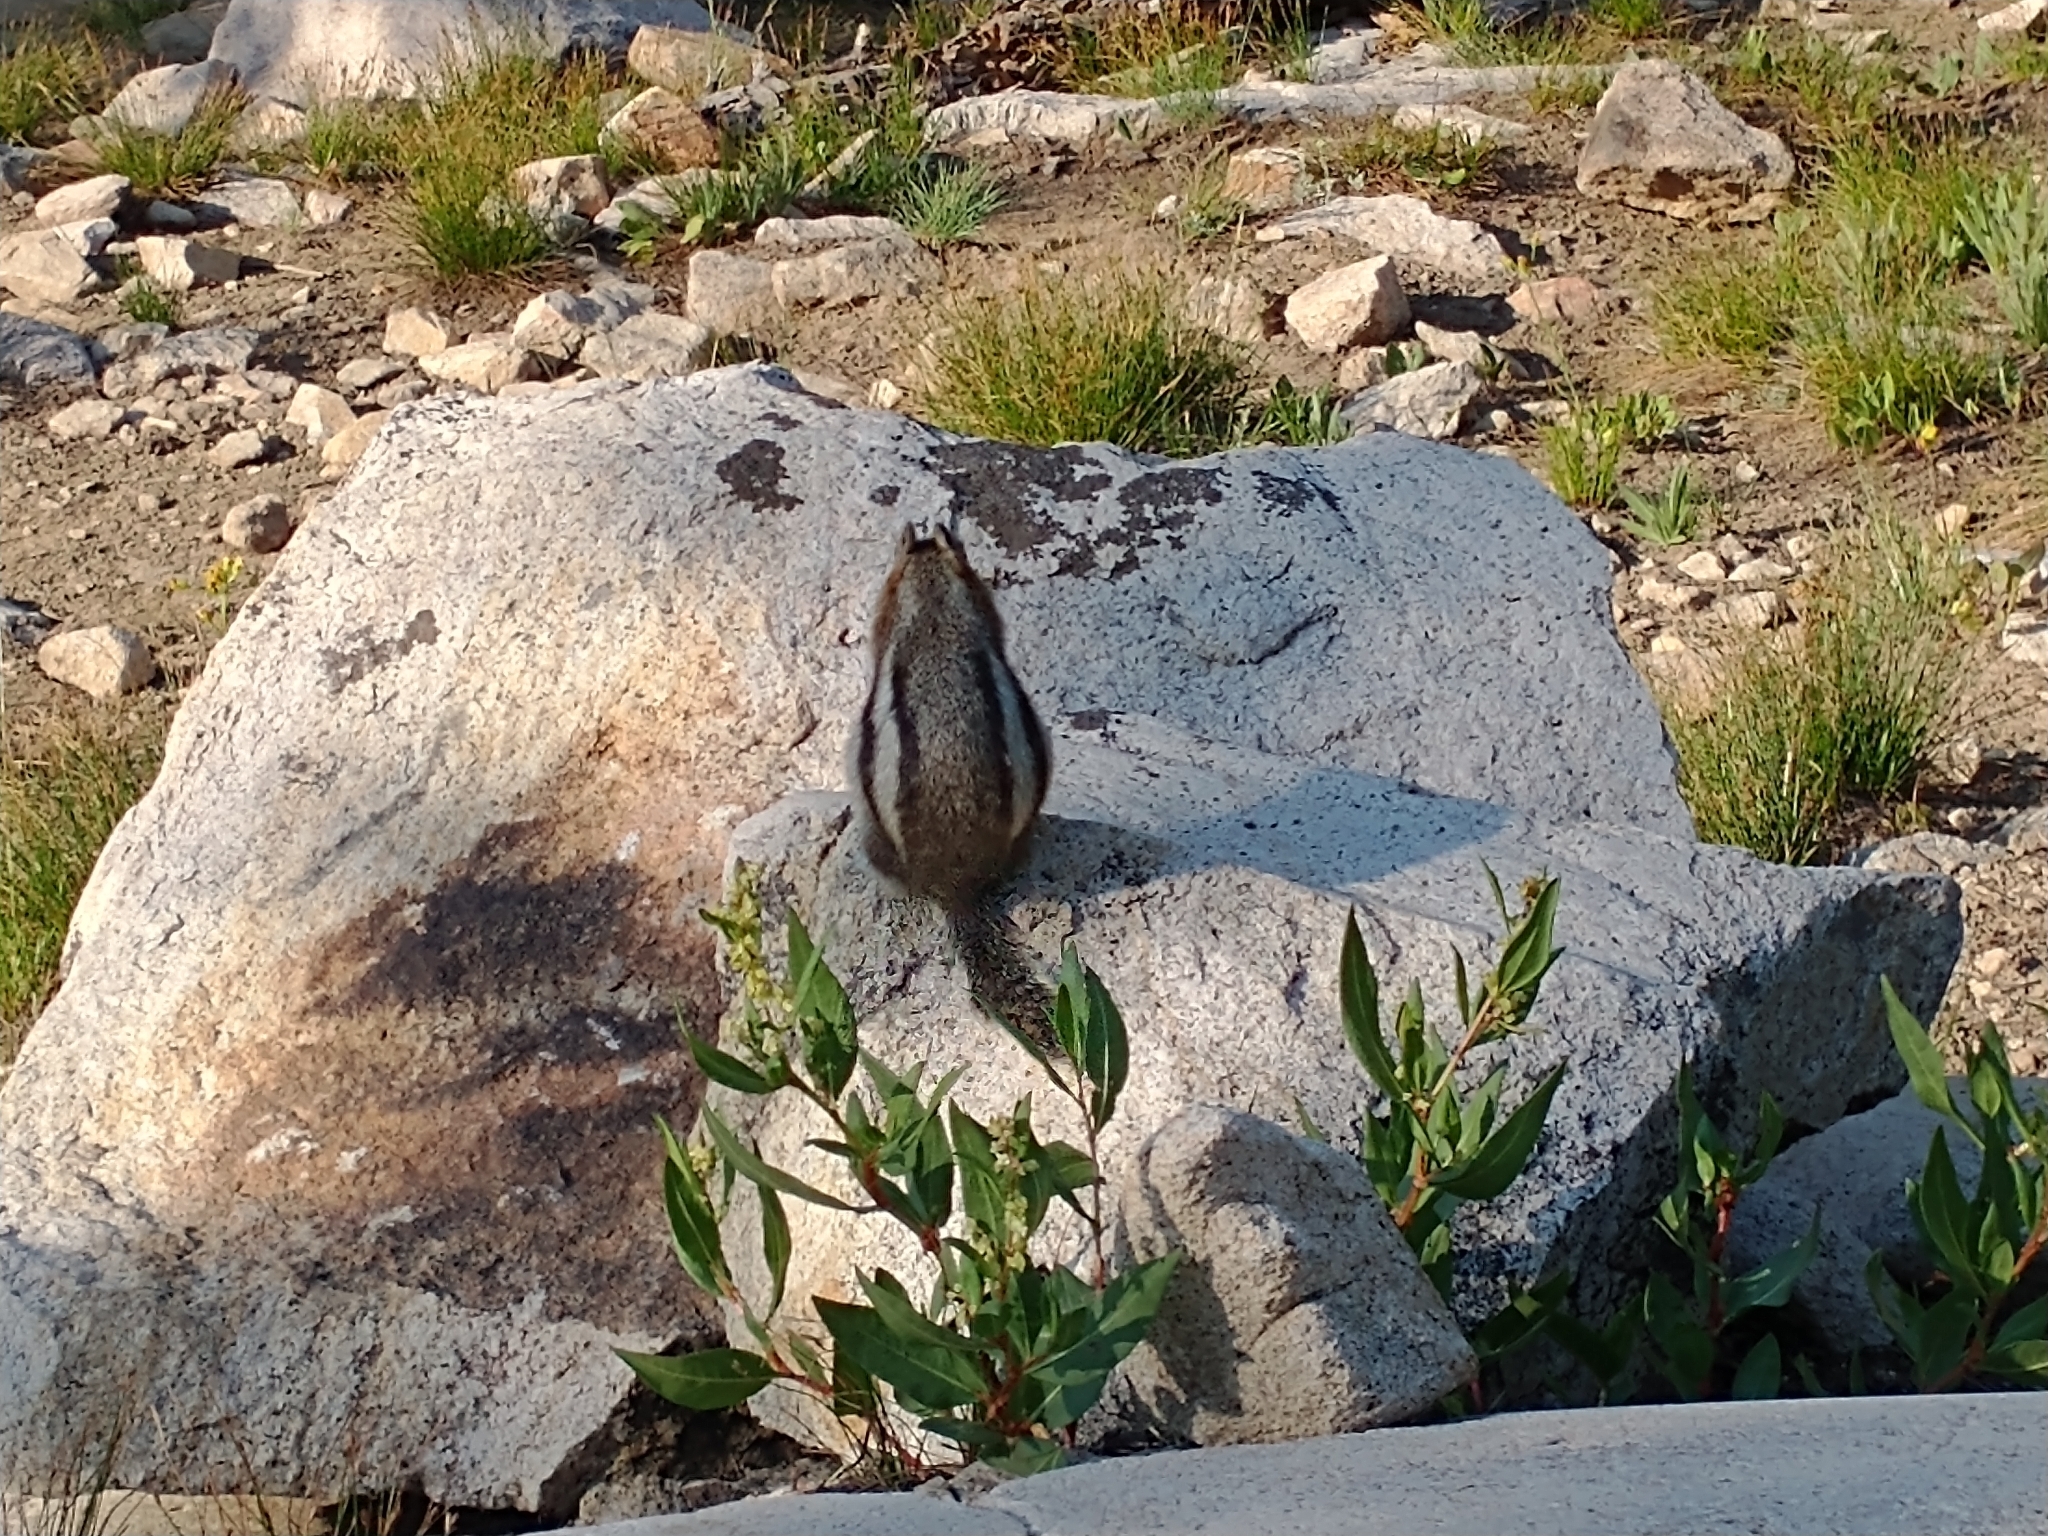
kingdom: Animalia
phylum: Chordata
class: Mammalia
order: Rodentia
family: Sciuridae
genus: Callospermophilus
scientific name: Callospermophilus lateralis
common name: Golden-mantled ground squirrel
